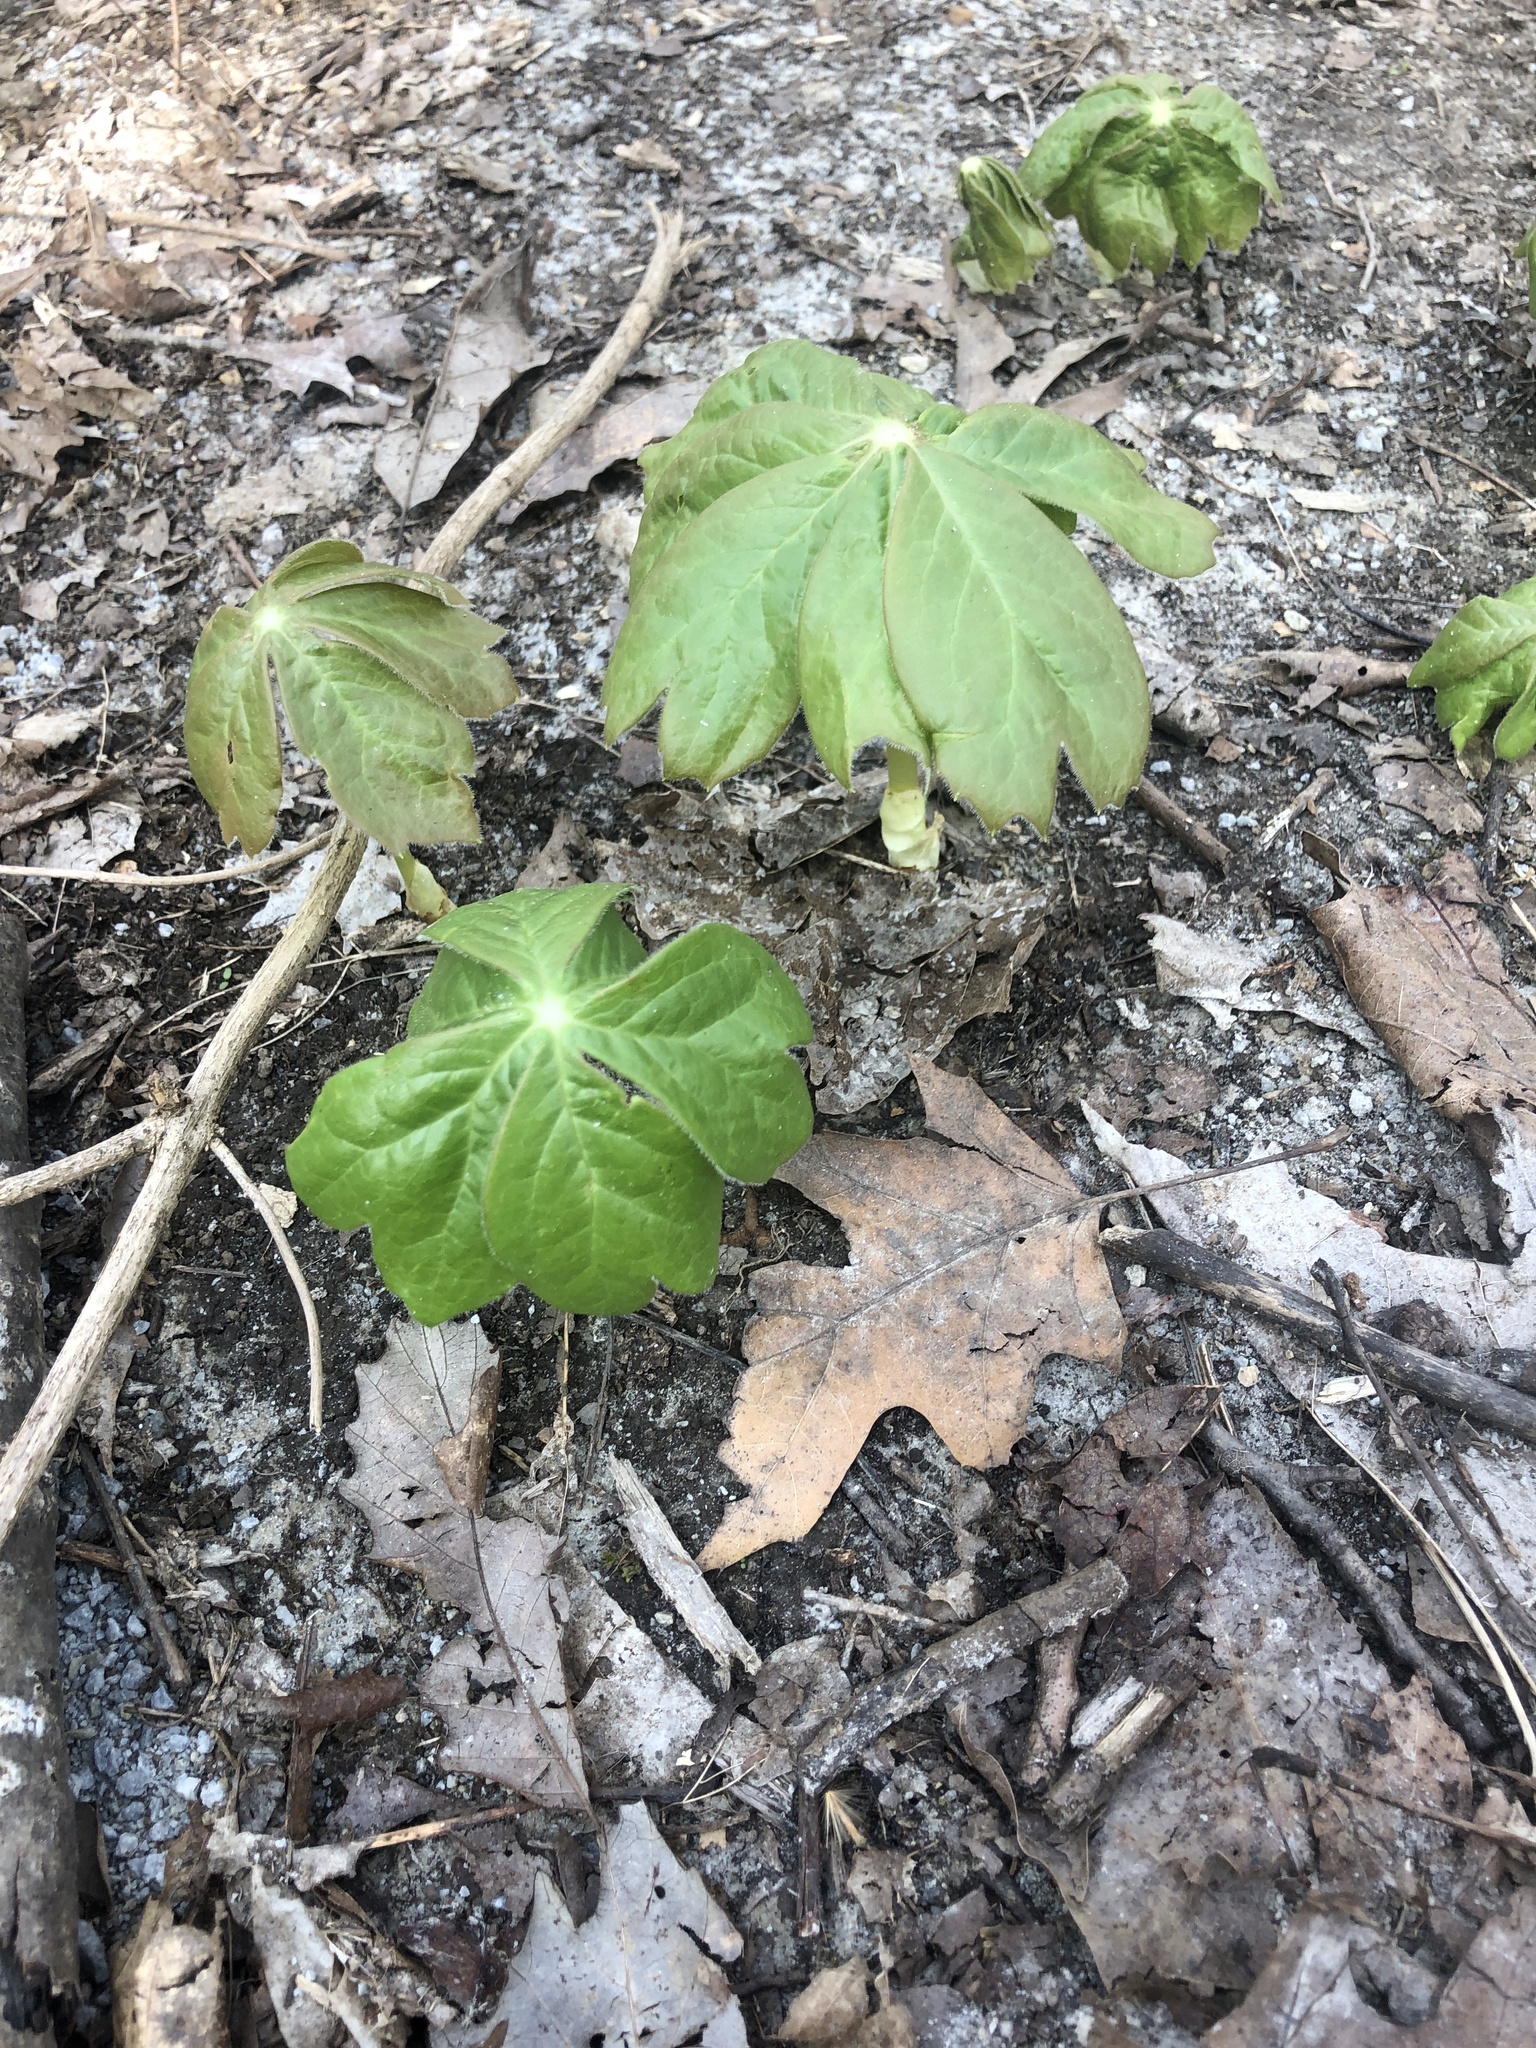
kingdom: Plantae
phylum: Tracheophyta
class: Magnoliopsida
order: Ranunculales
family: Berberidaceae
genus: Podophyllum
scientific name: Podophyllum peltatum
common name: Wild mandrake
